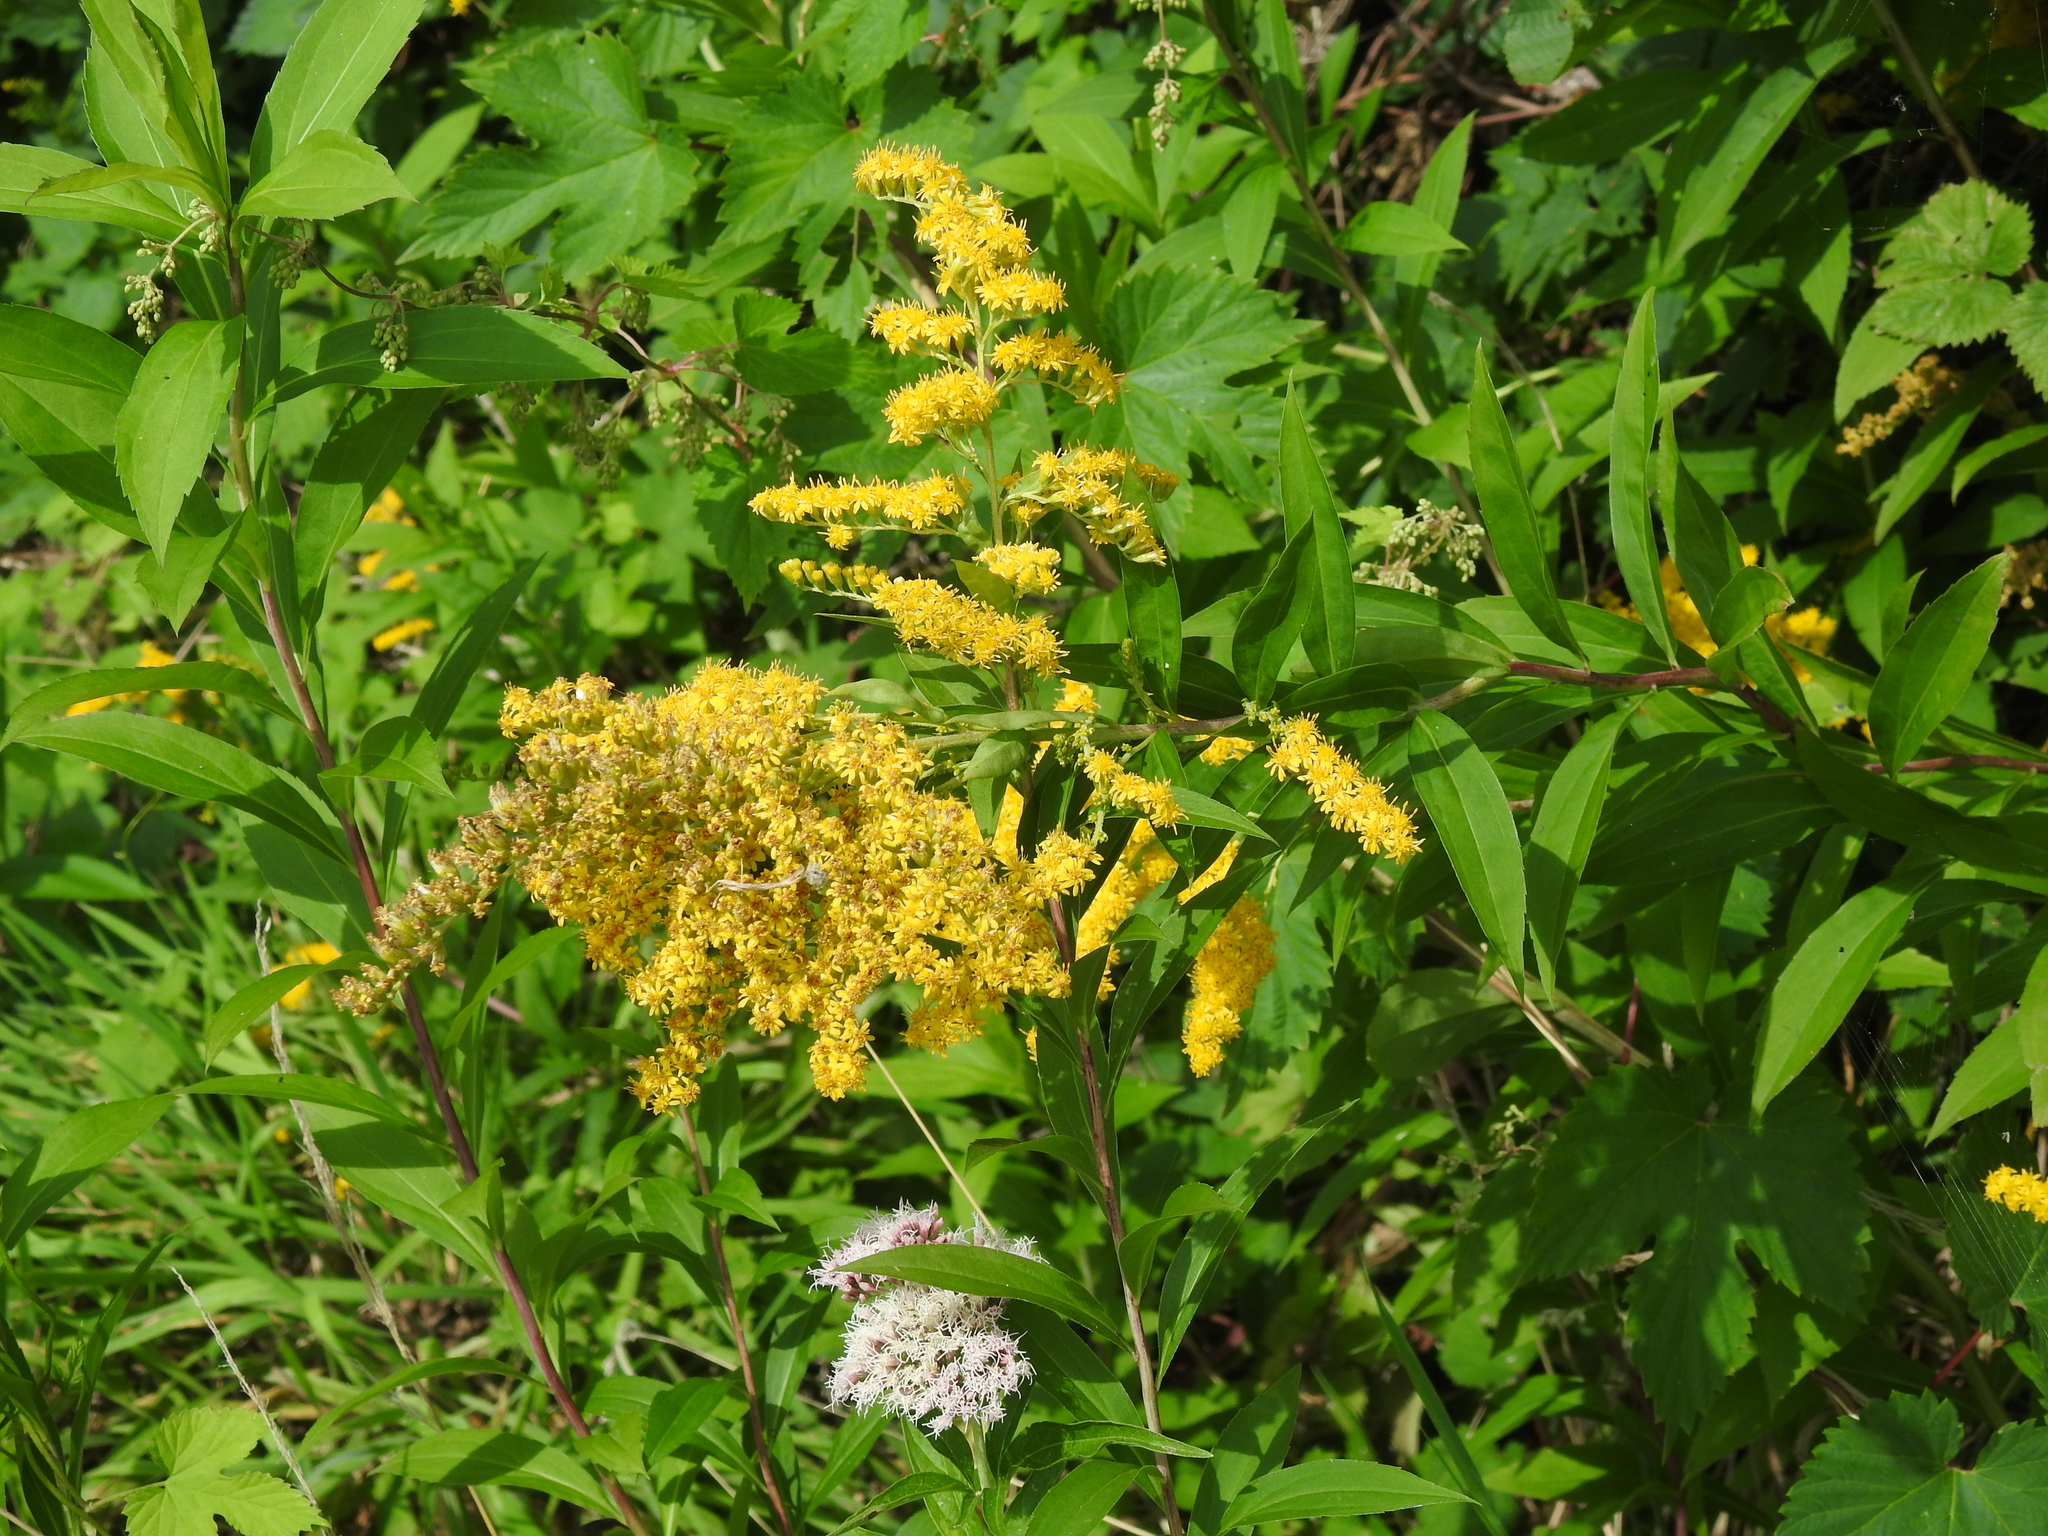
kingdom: Plantae
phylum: Tracheophyta
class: Magnoliopsida
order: Asterales
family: Asteraceae
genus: Solidago
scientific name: Solidago gigantea
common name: Giant goldenrod
